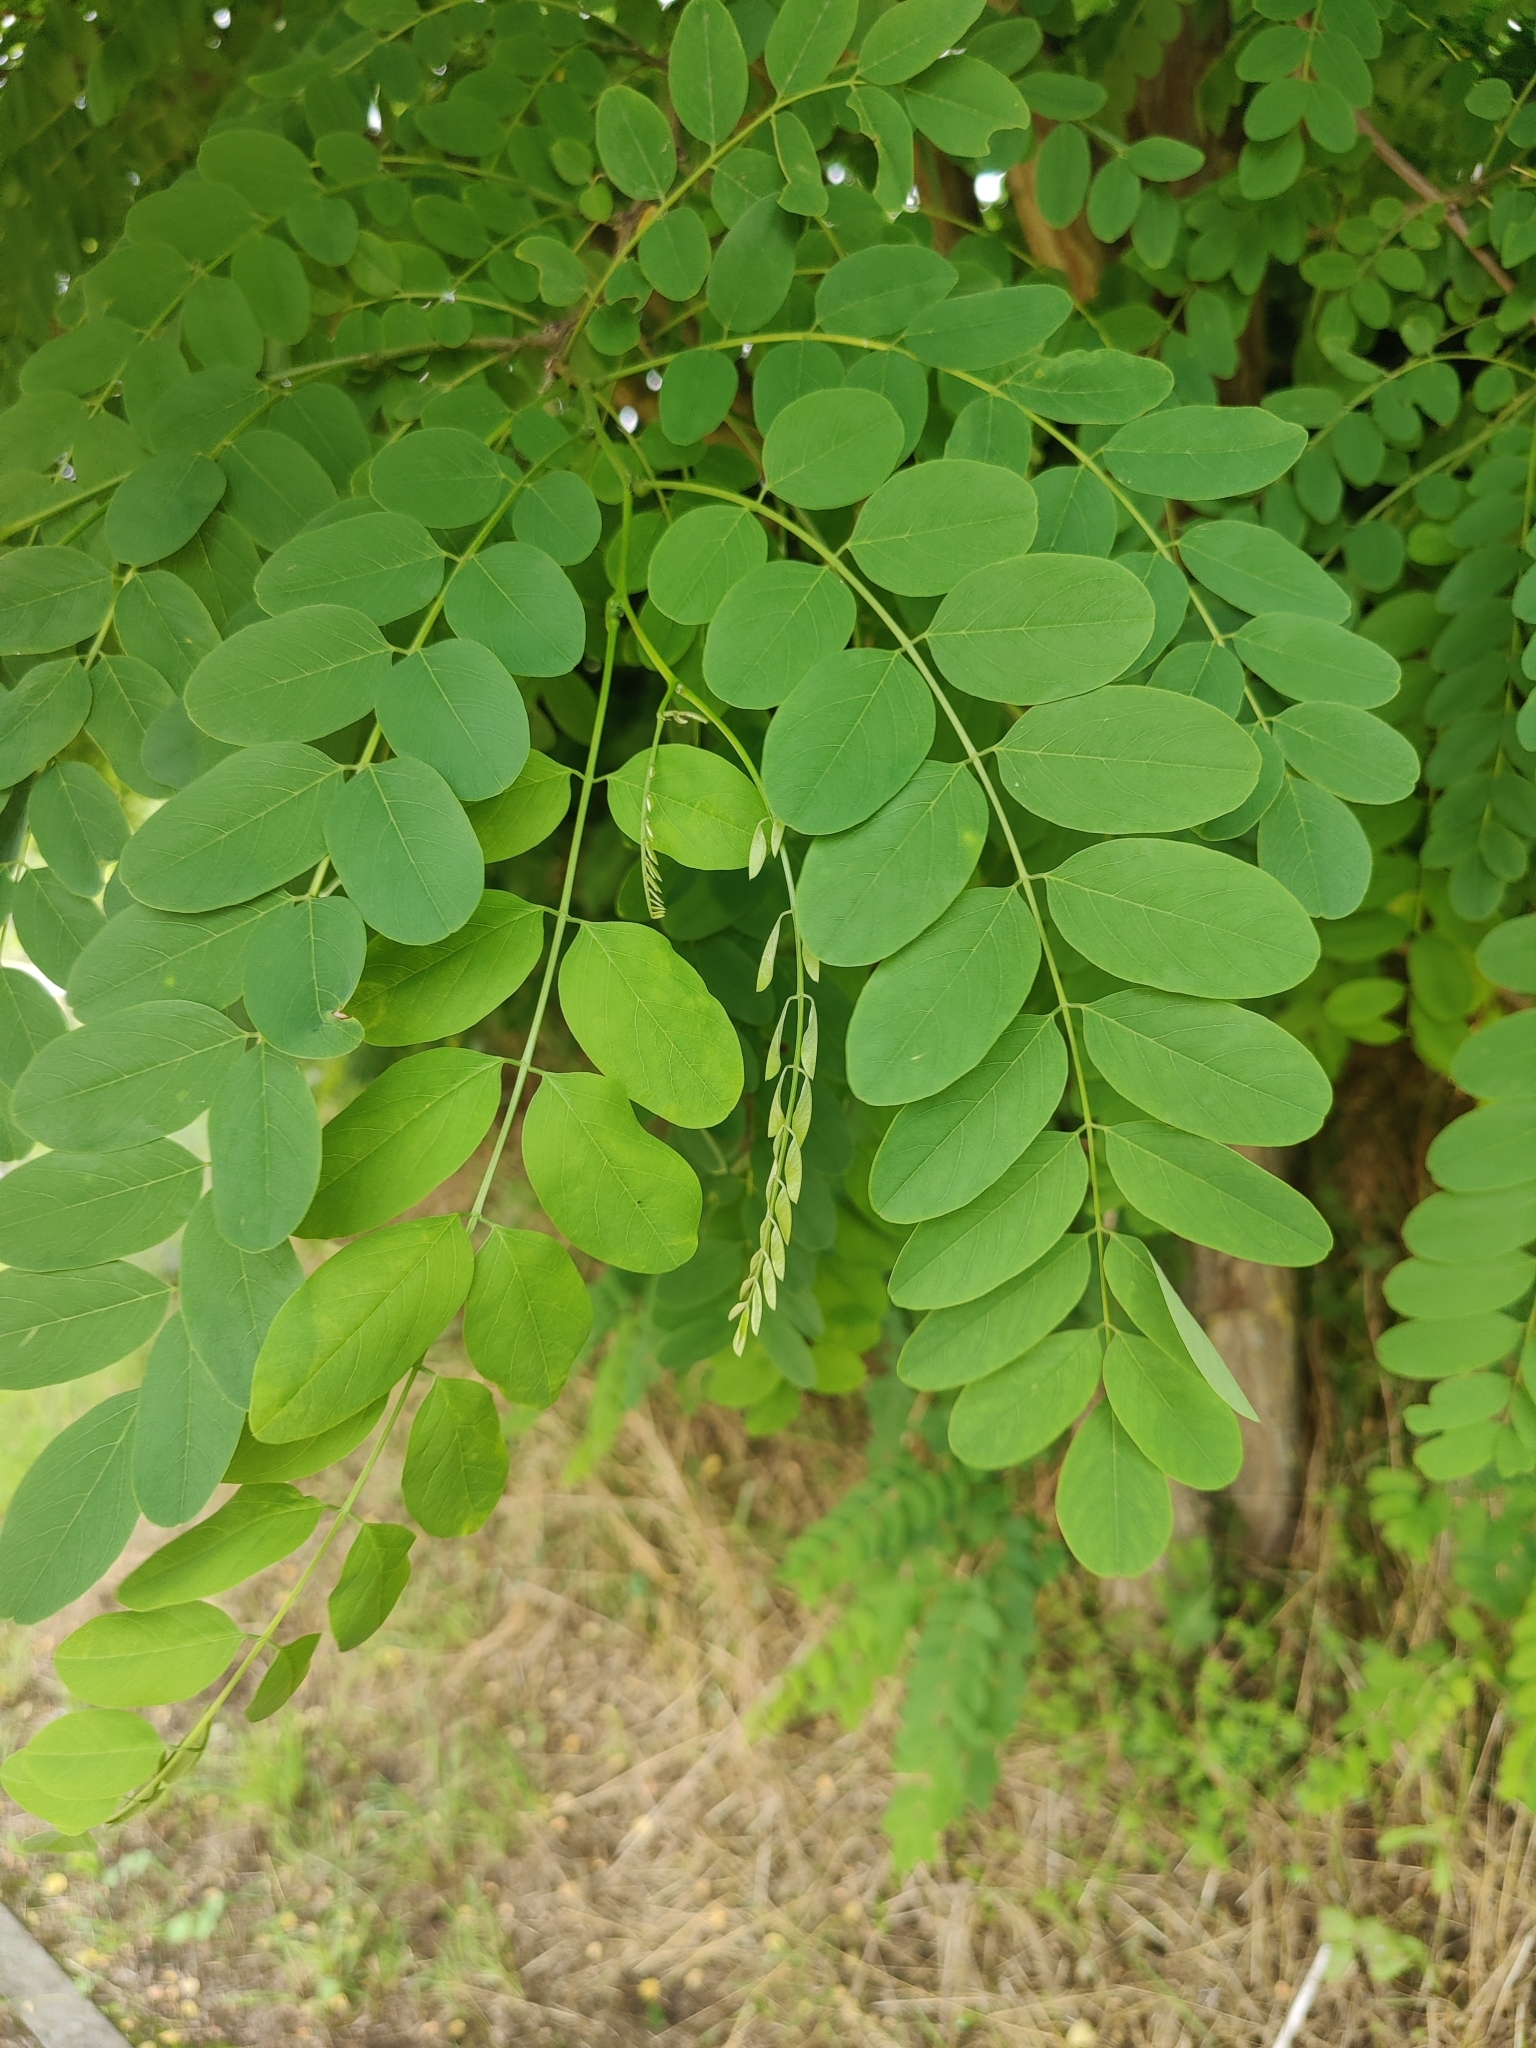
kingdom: Plantae
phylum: Tracheophyta
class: Magnoliopsida
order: Fabales
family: Fabaceae
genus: Robinia
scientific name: Robinia pseudoacacia
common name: Black locust
